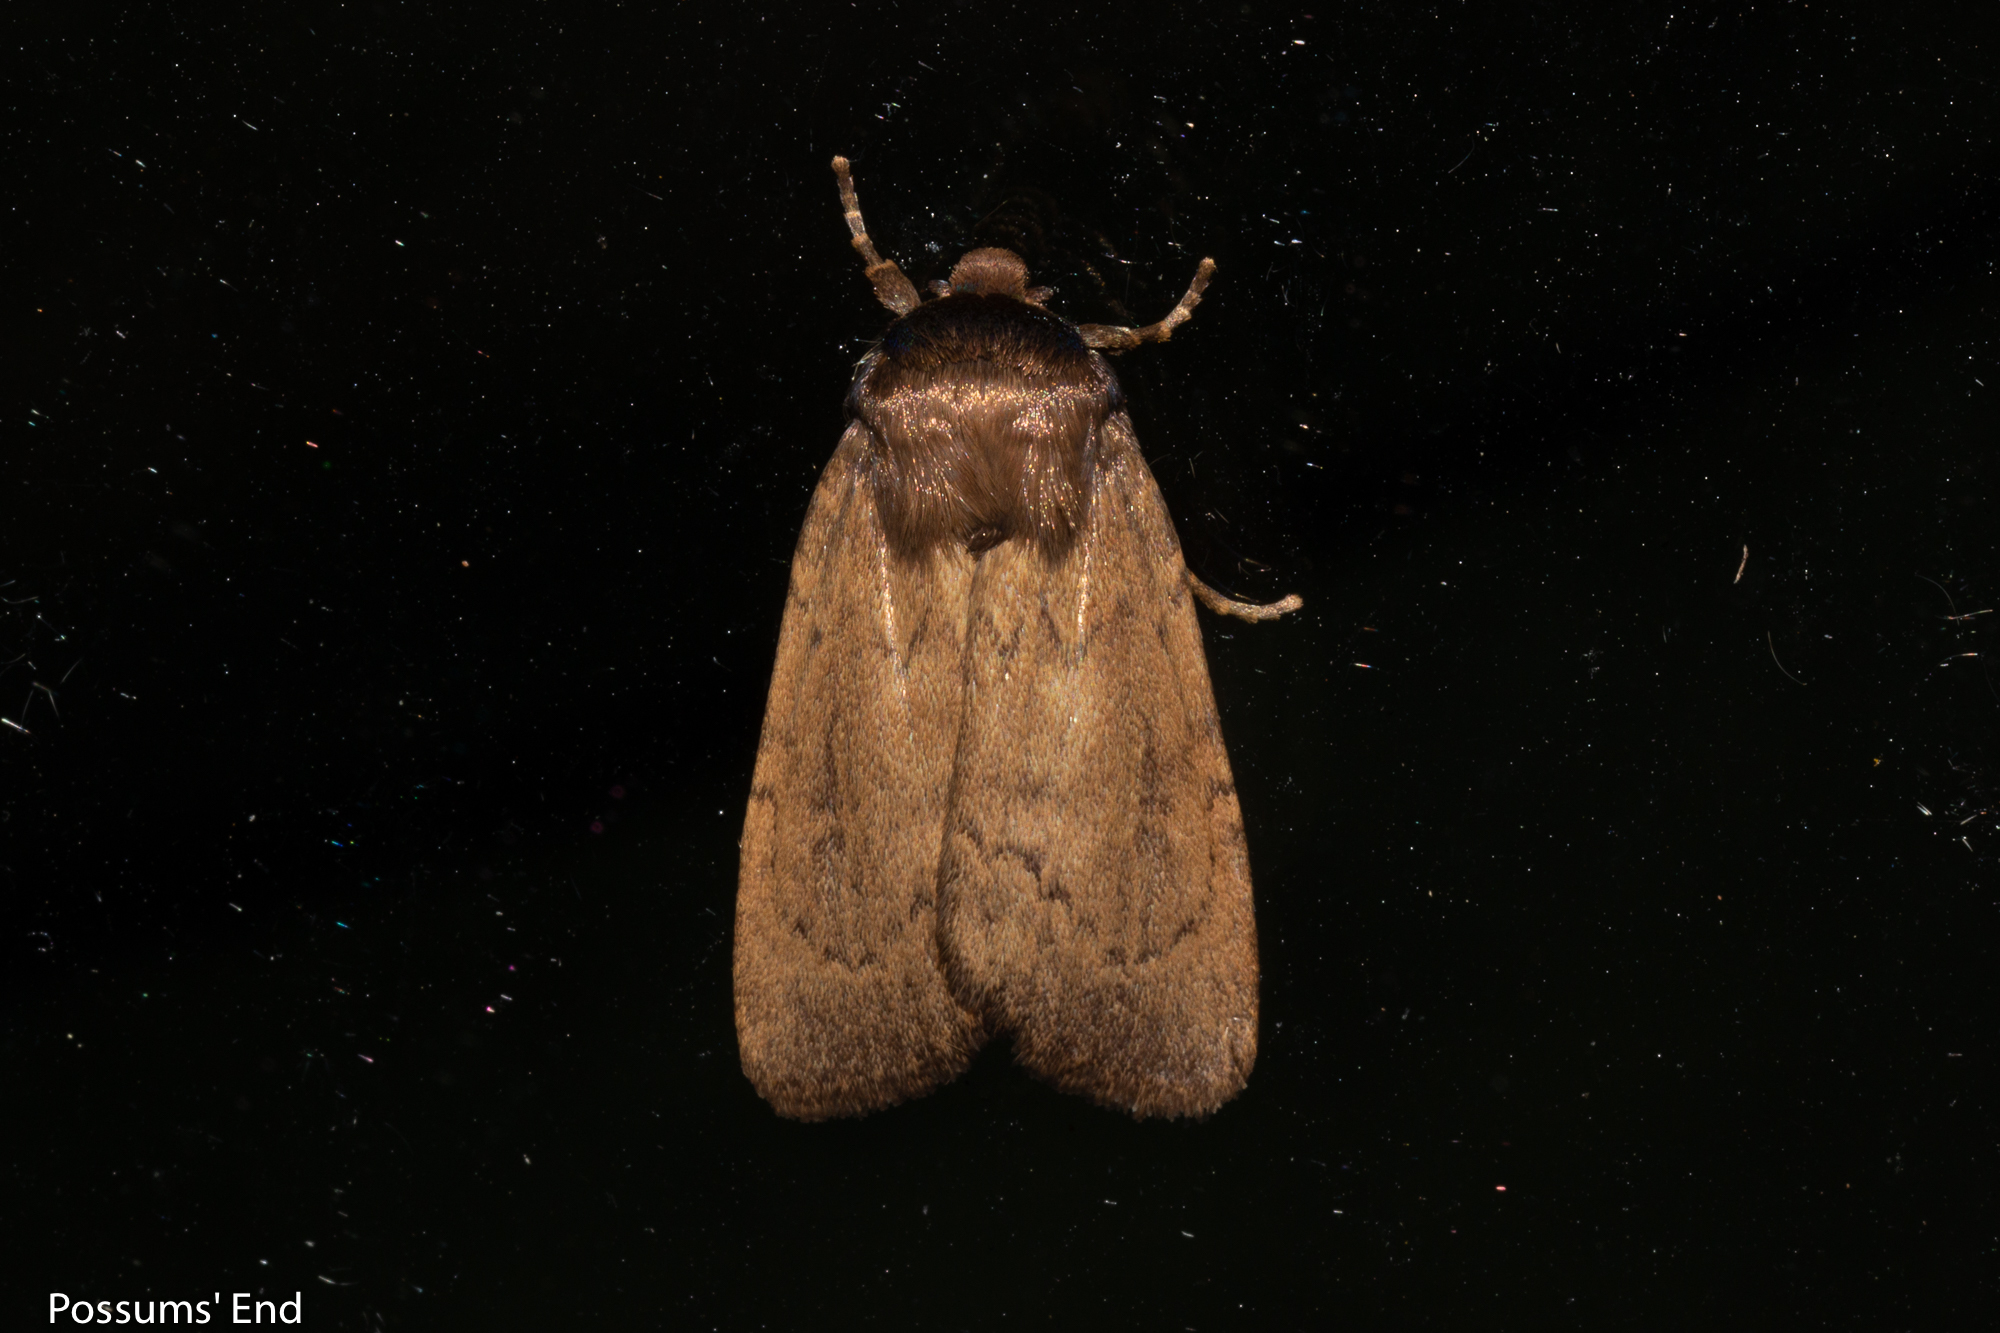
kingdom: Animalia
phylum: Arthropoda
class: Insecta
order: Lepidoptera
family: Noctuidae
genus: Bityla
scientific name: Bityla defigurata
